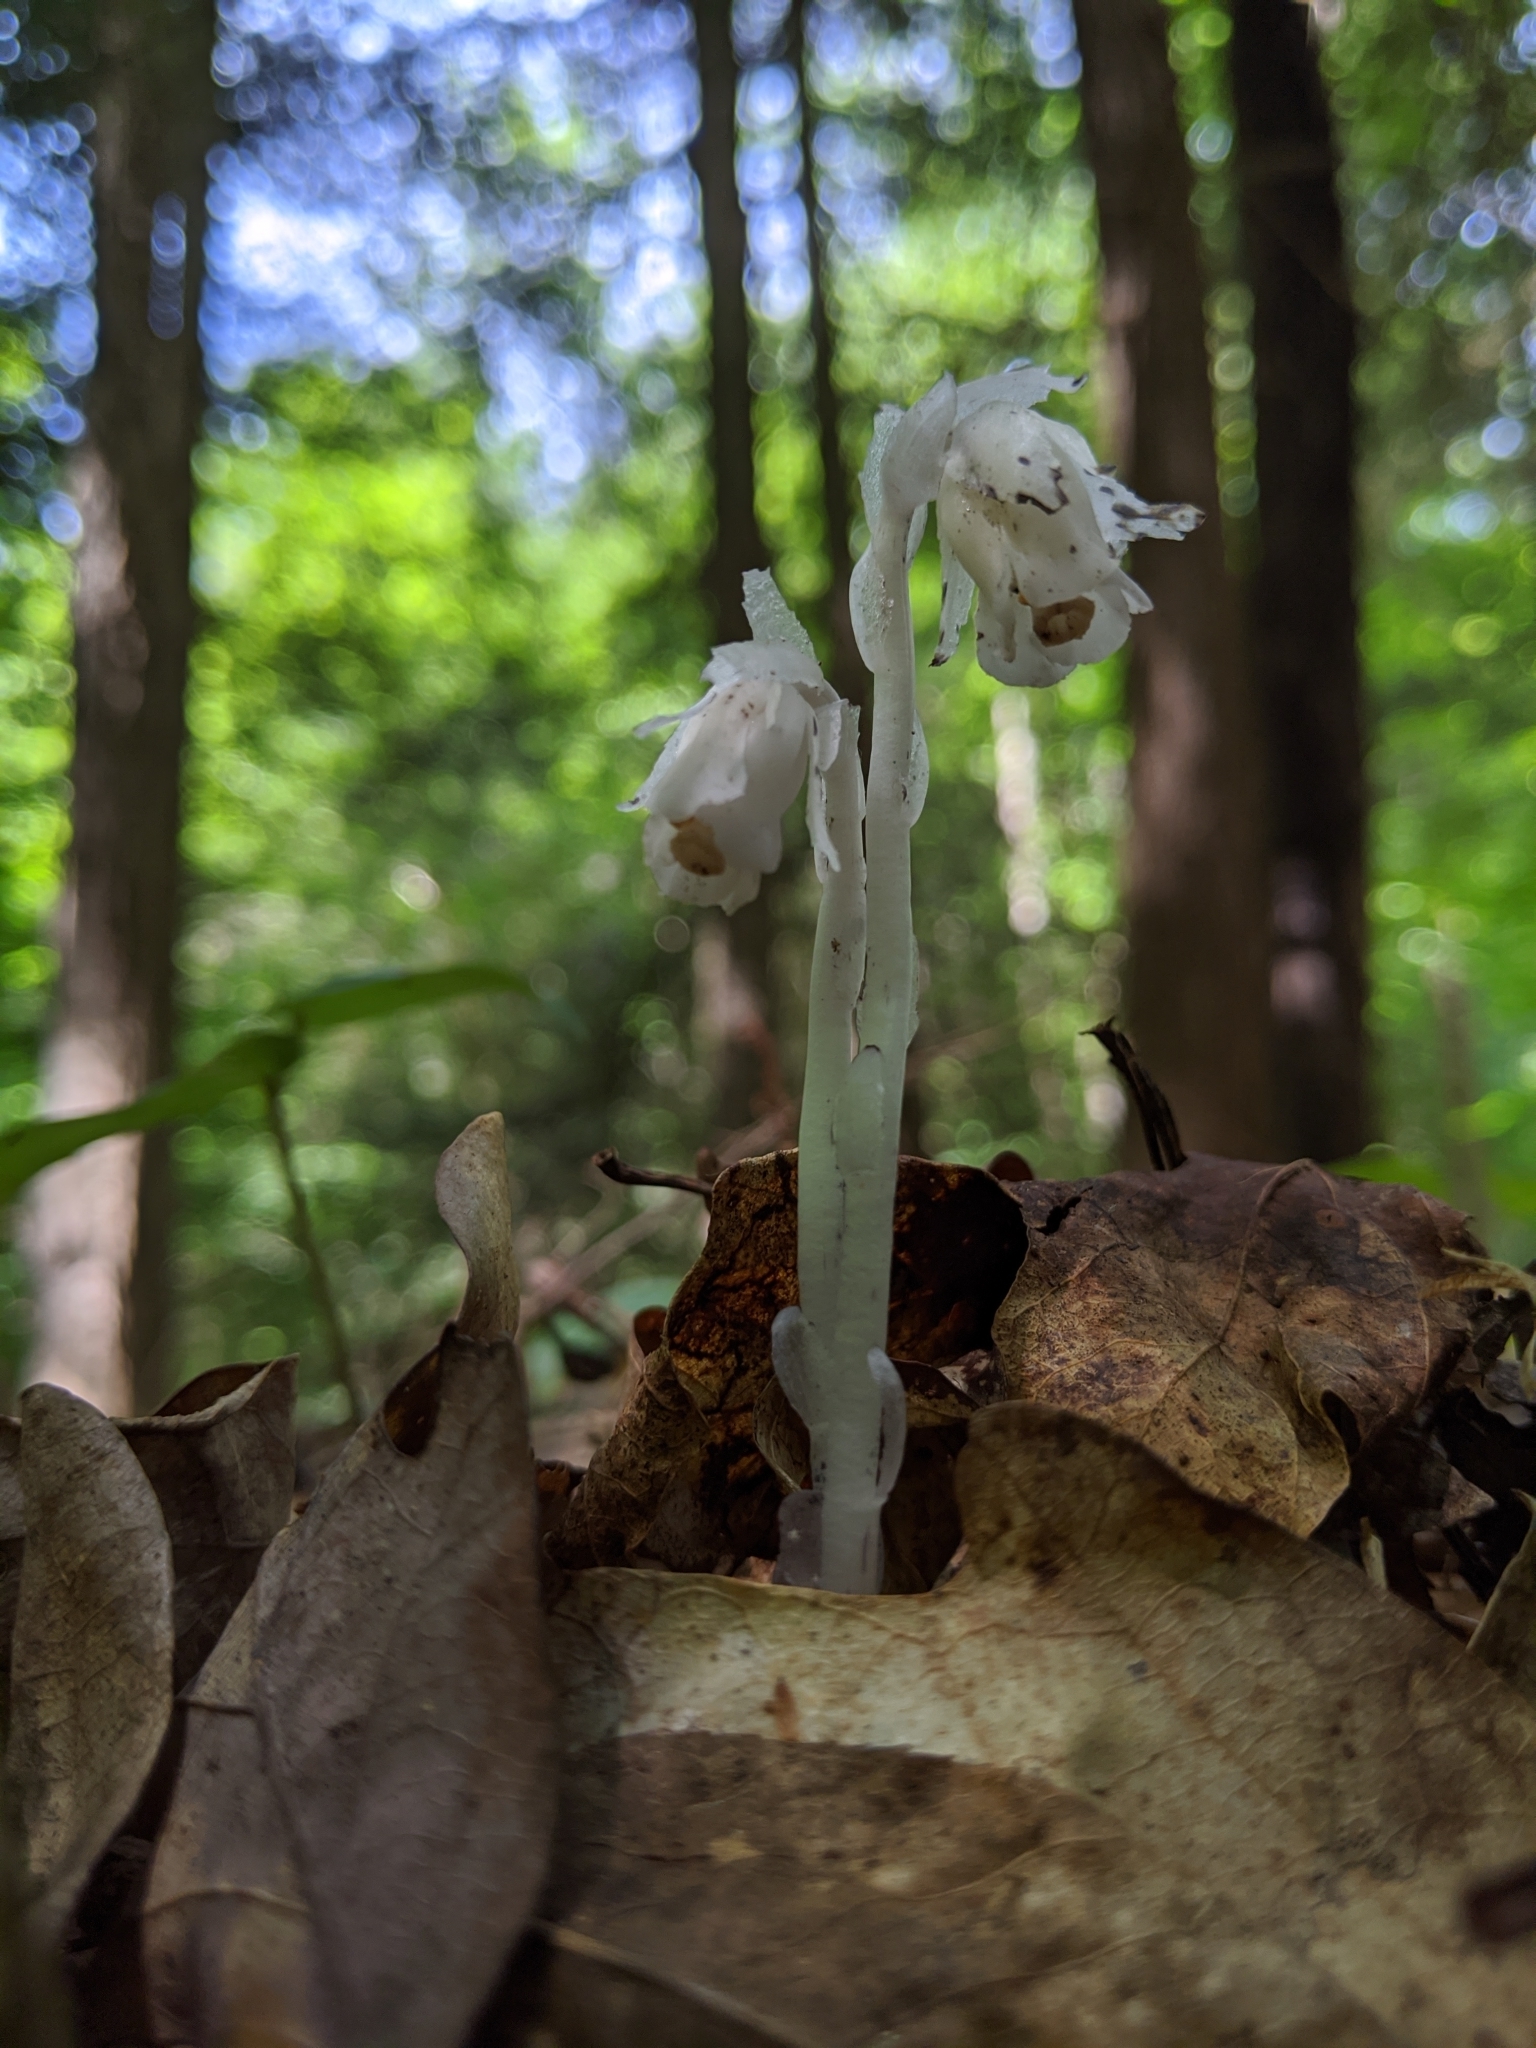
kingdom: Plantae
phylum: Tracheophyta
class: Magnoliopsida
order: Ericales
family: Ericaceae
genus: Monotropa
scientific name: Monotropa uniflora
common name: Convulsion root
